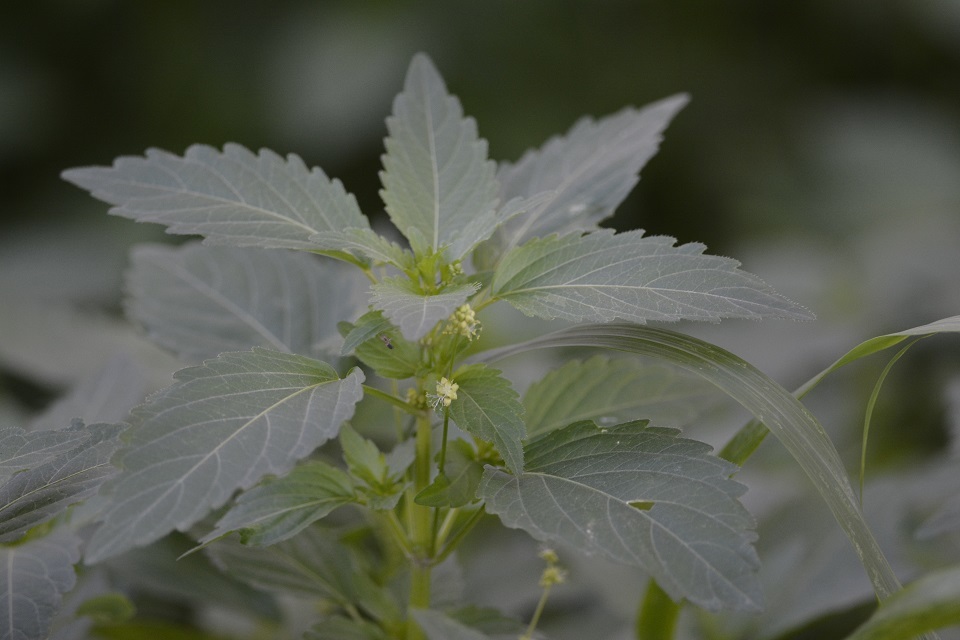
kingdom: Plantae
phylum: Tracheophyta
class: Magnoliopsida
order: Malpighiales
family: Euphorbiaceae
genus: Mercurialis
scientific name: Mercurialis annua
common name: Annual mercury
